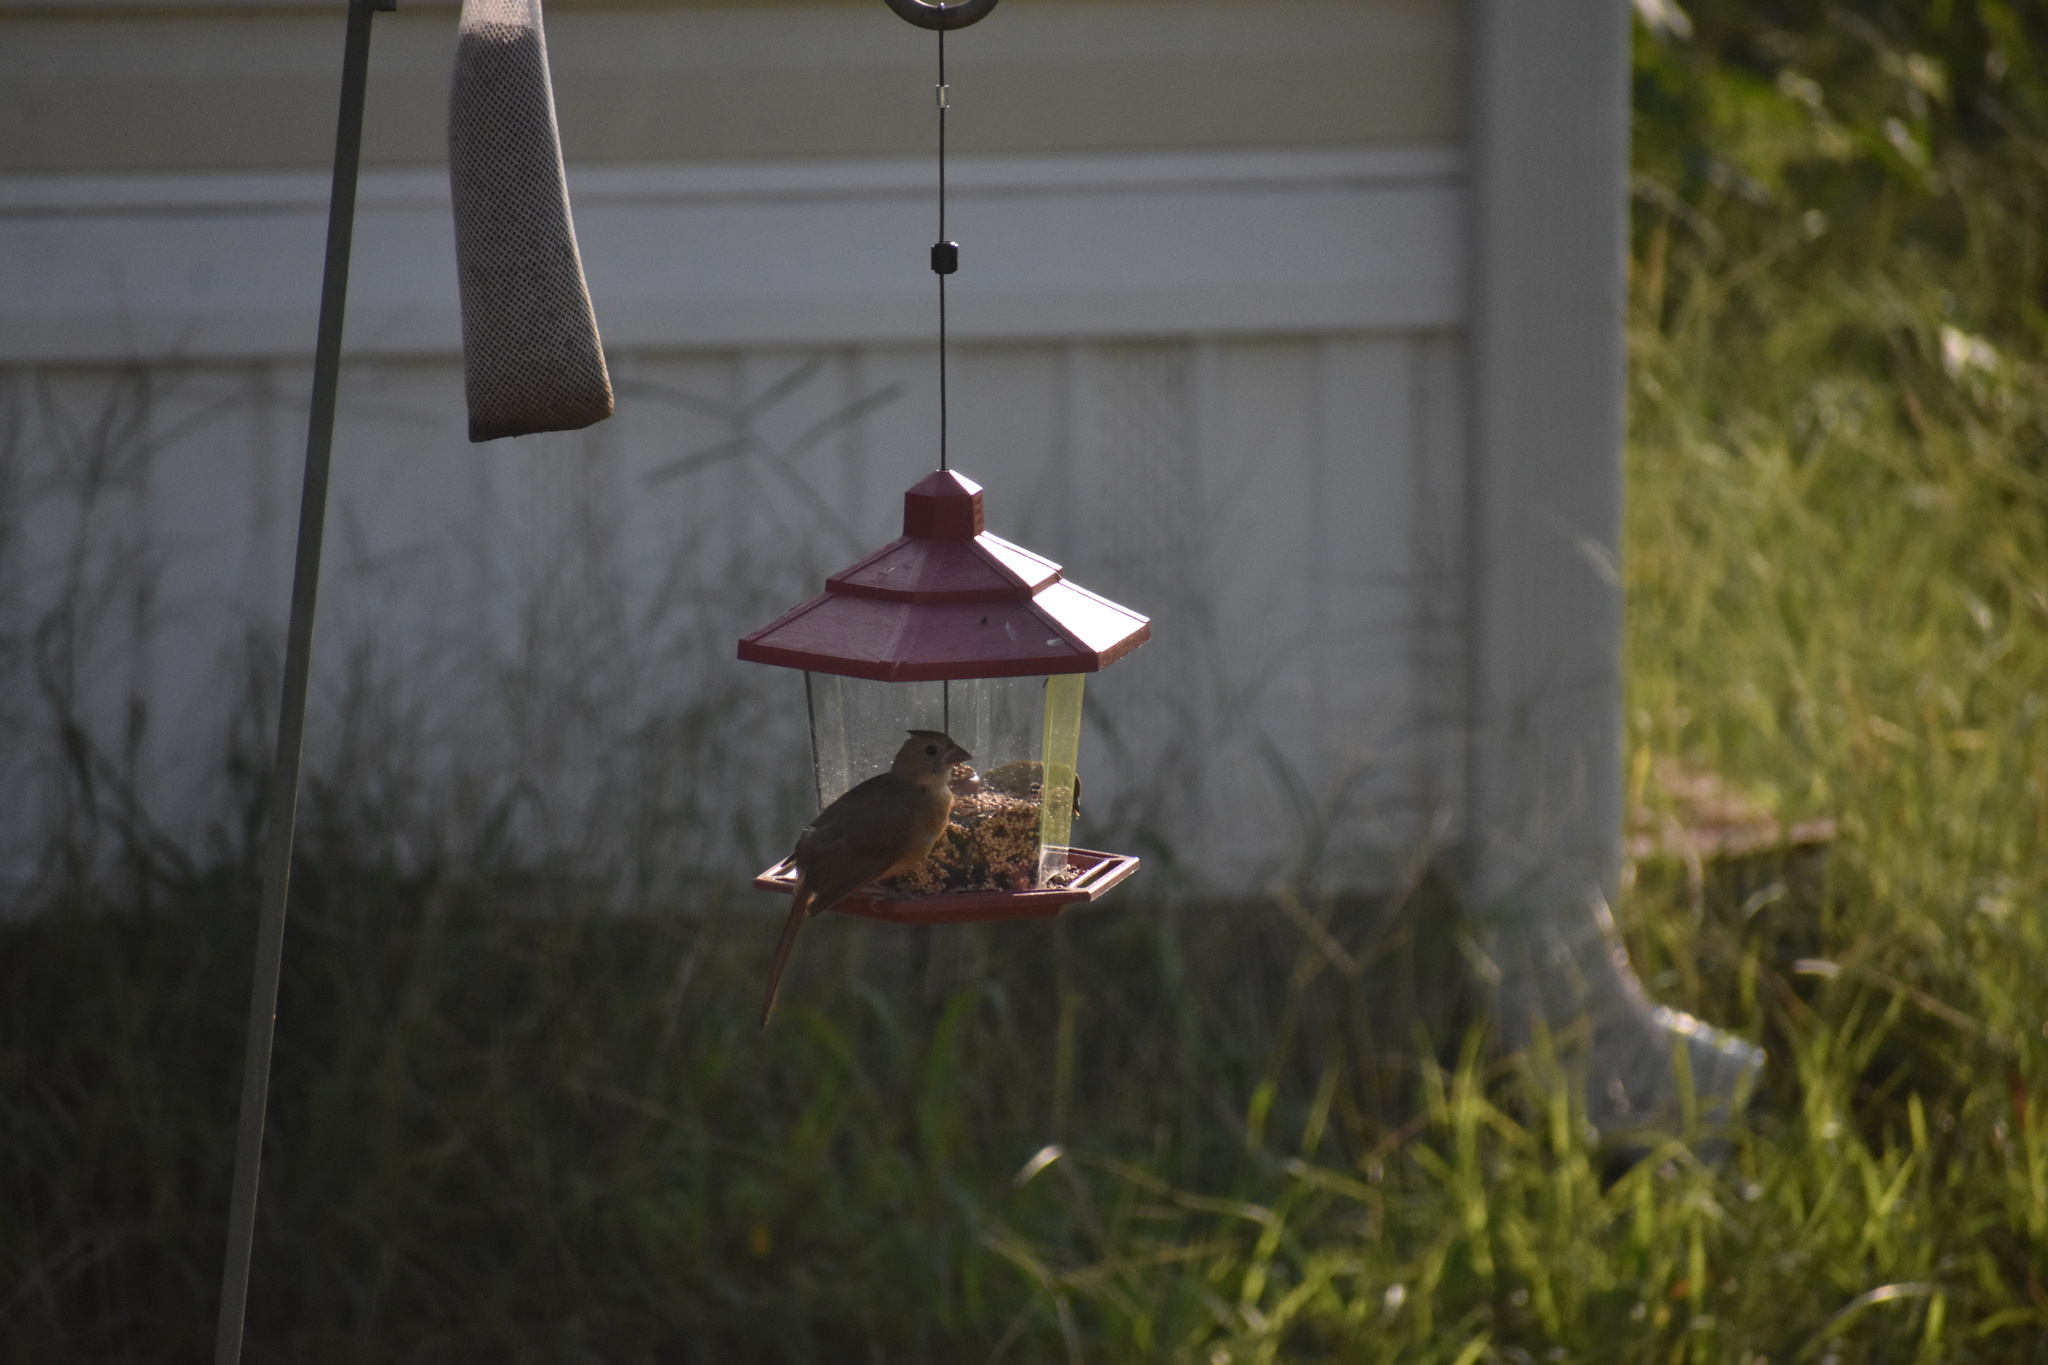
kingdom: Animalia
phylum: Chordata
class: Aves
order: Passeriformes
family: Cardinalidae
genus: Cardinalis
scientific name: Cardinalis cardinalis
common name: Northern cardinal
